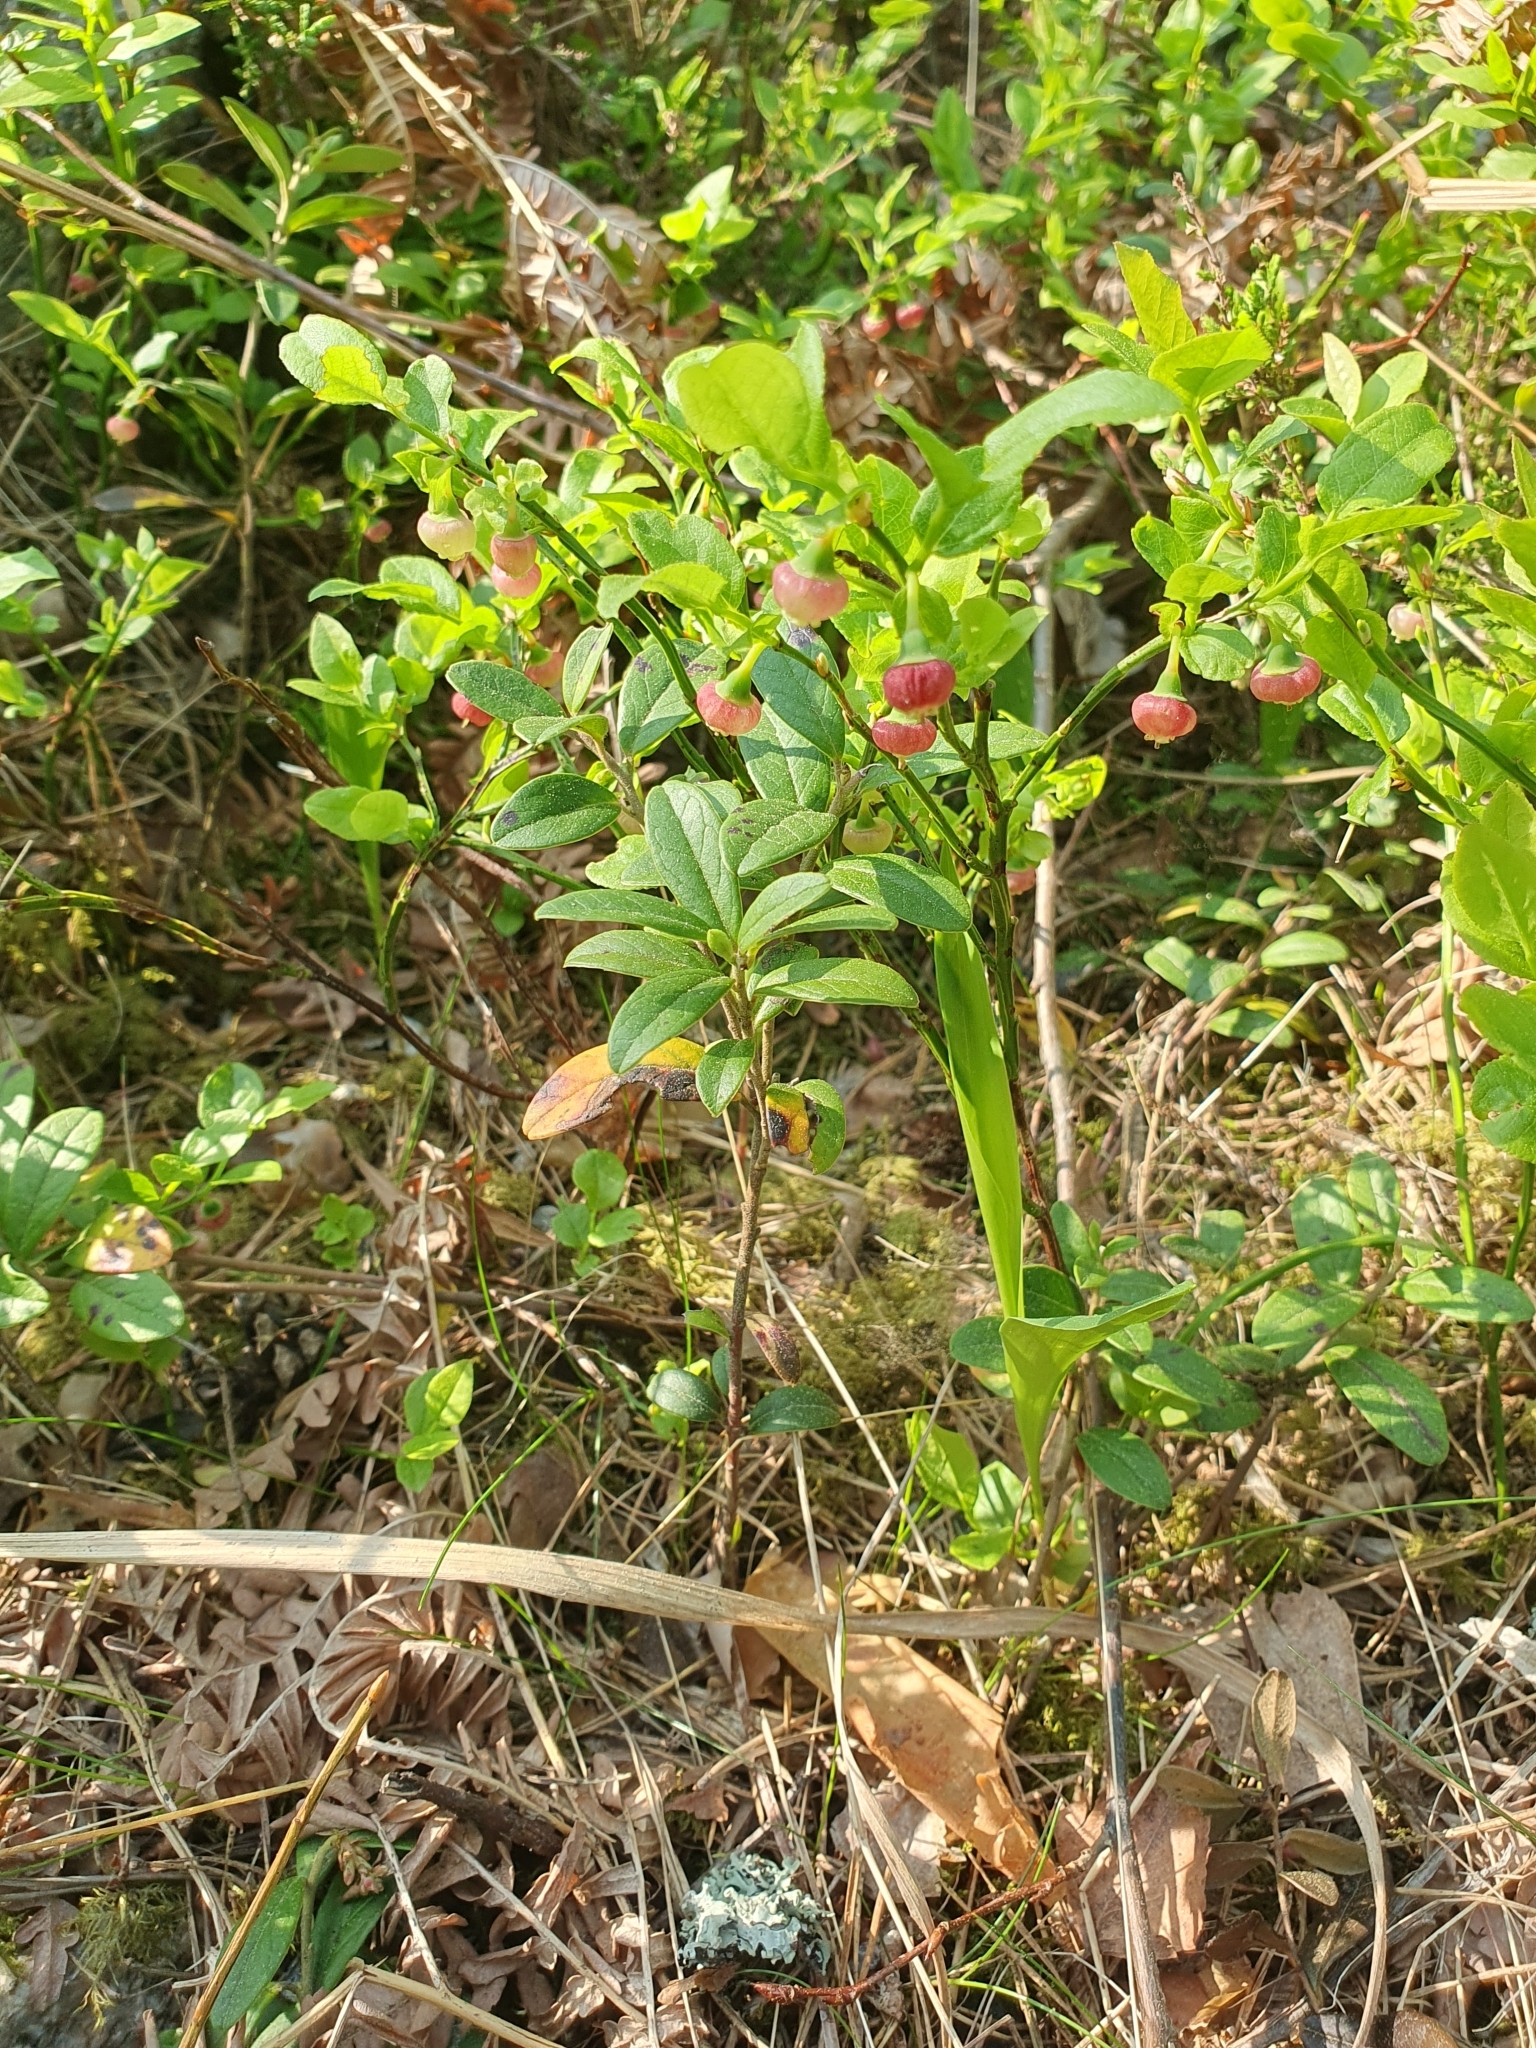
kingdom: Plantae
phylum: Tracheophyta
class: Magnoliopsida
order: Ericales
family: Ericaceae
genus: Vaccinium
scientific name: Vaccinium myrtillus
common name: Bilberry
